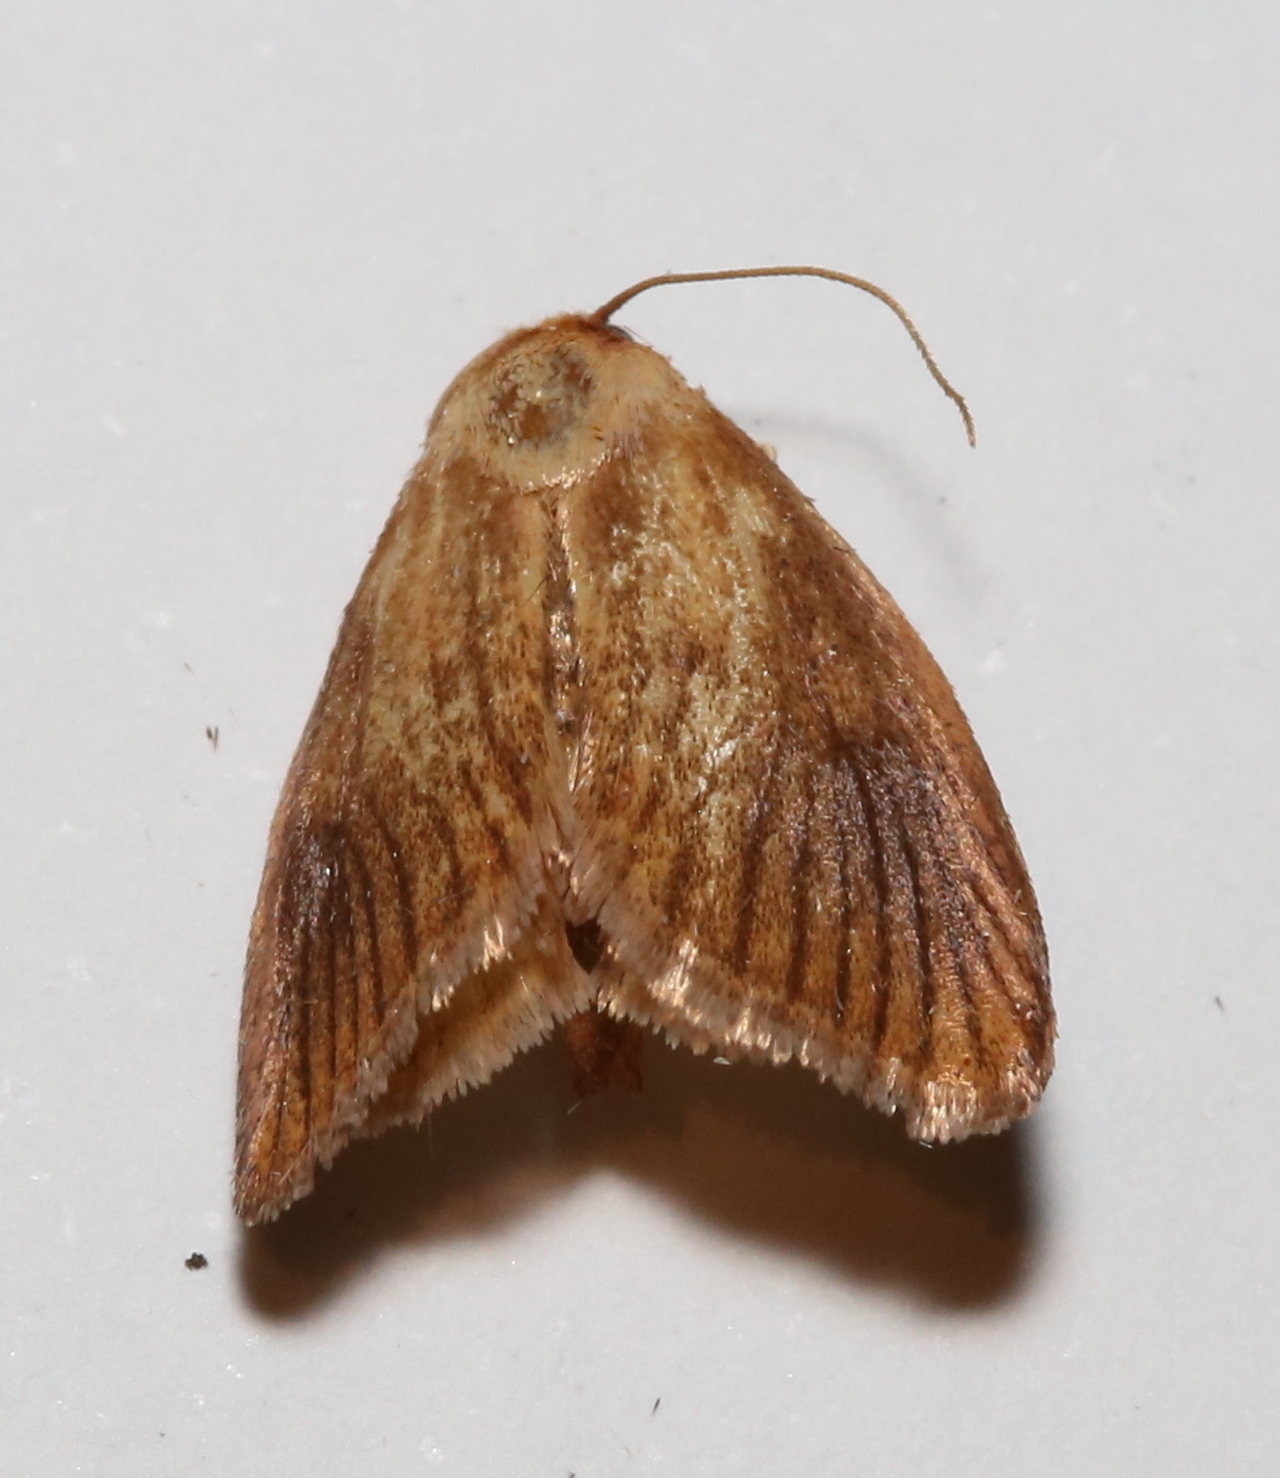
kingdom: Animalia
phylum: Arthropoda
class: Insecta
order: Lepidoptera
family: Limacodidae
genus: Tortricidia
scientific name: Tortricidia testacea
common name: Early button slug moth
